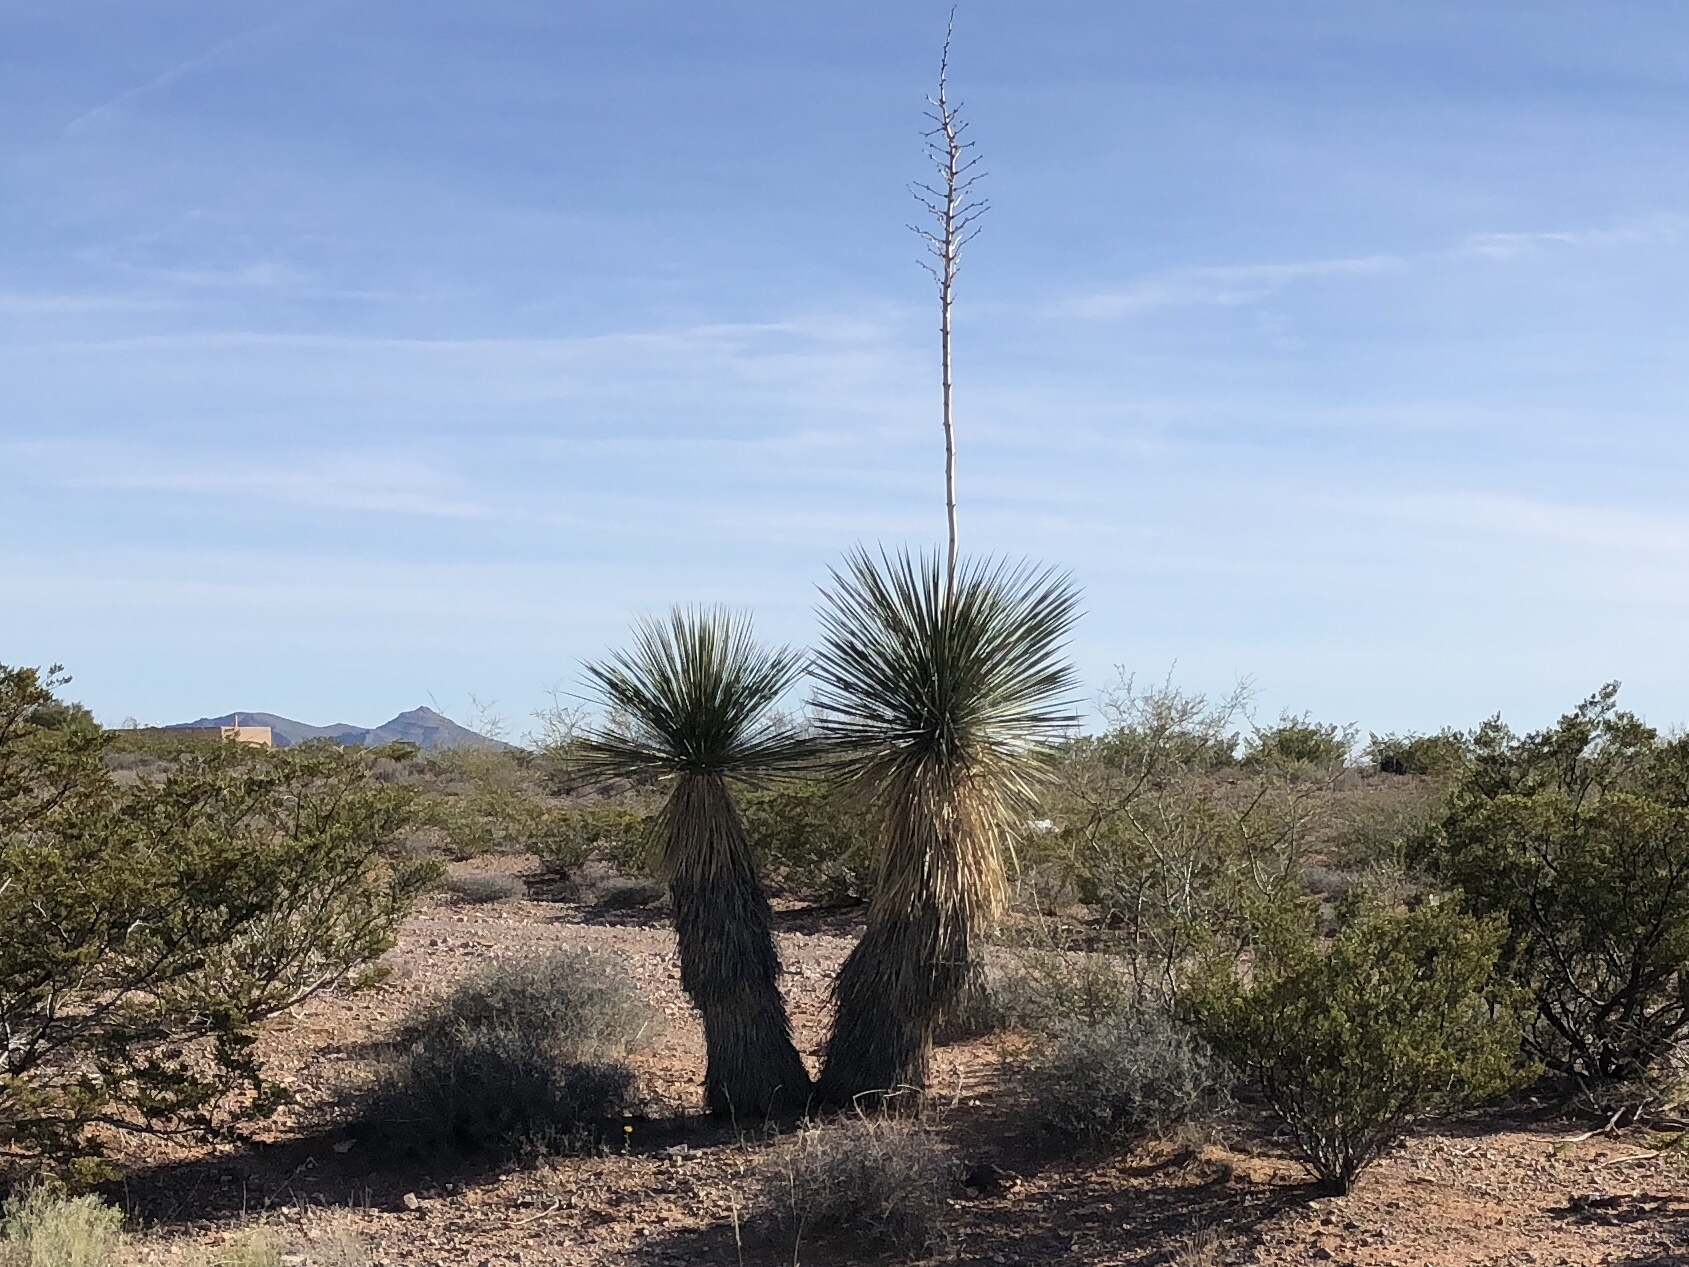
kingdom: Plantae
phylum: Tracheophyta
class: Liliopsida
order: Asparagales
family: Asparagaceae
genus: Yucca
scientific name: Yucca elata
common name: Palmella
